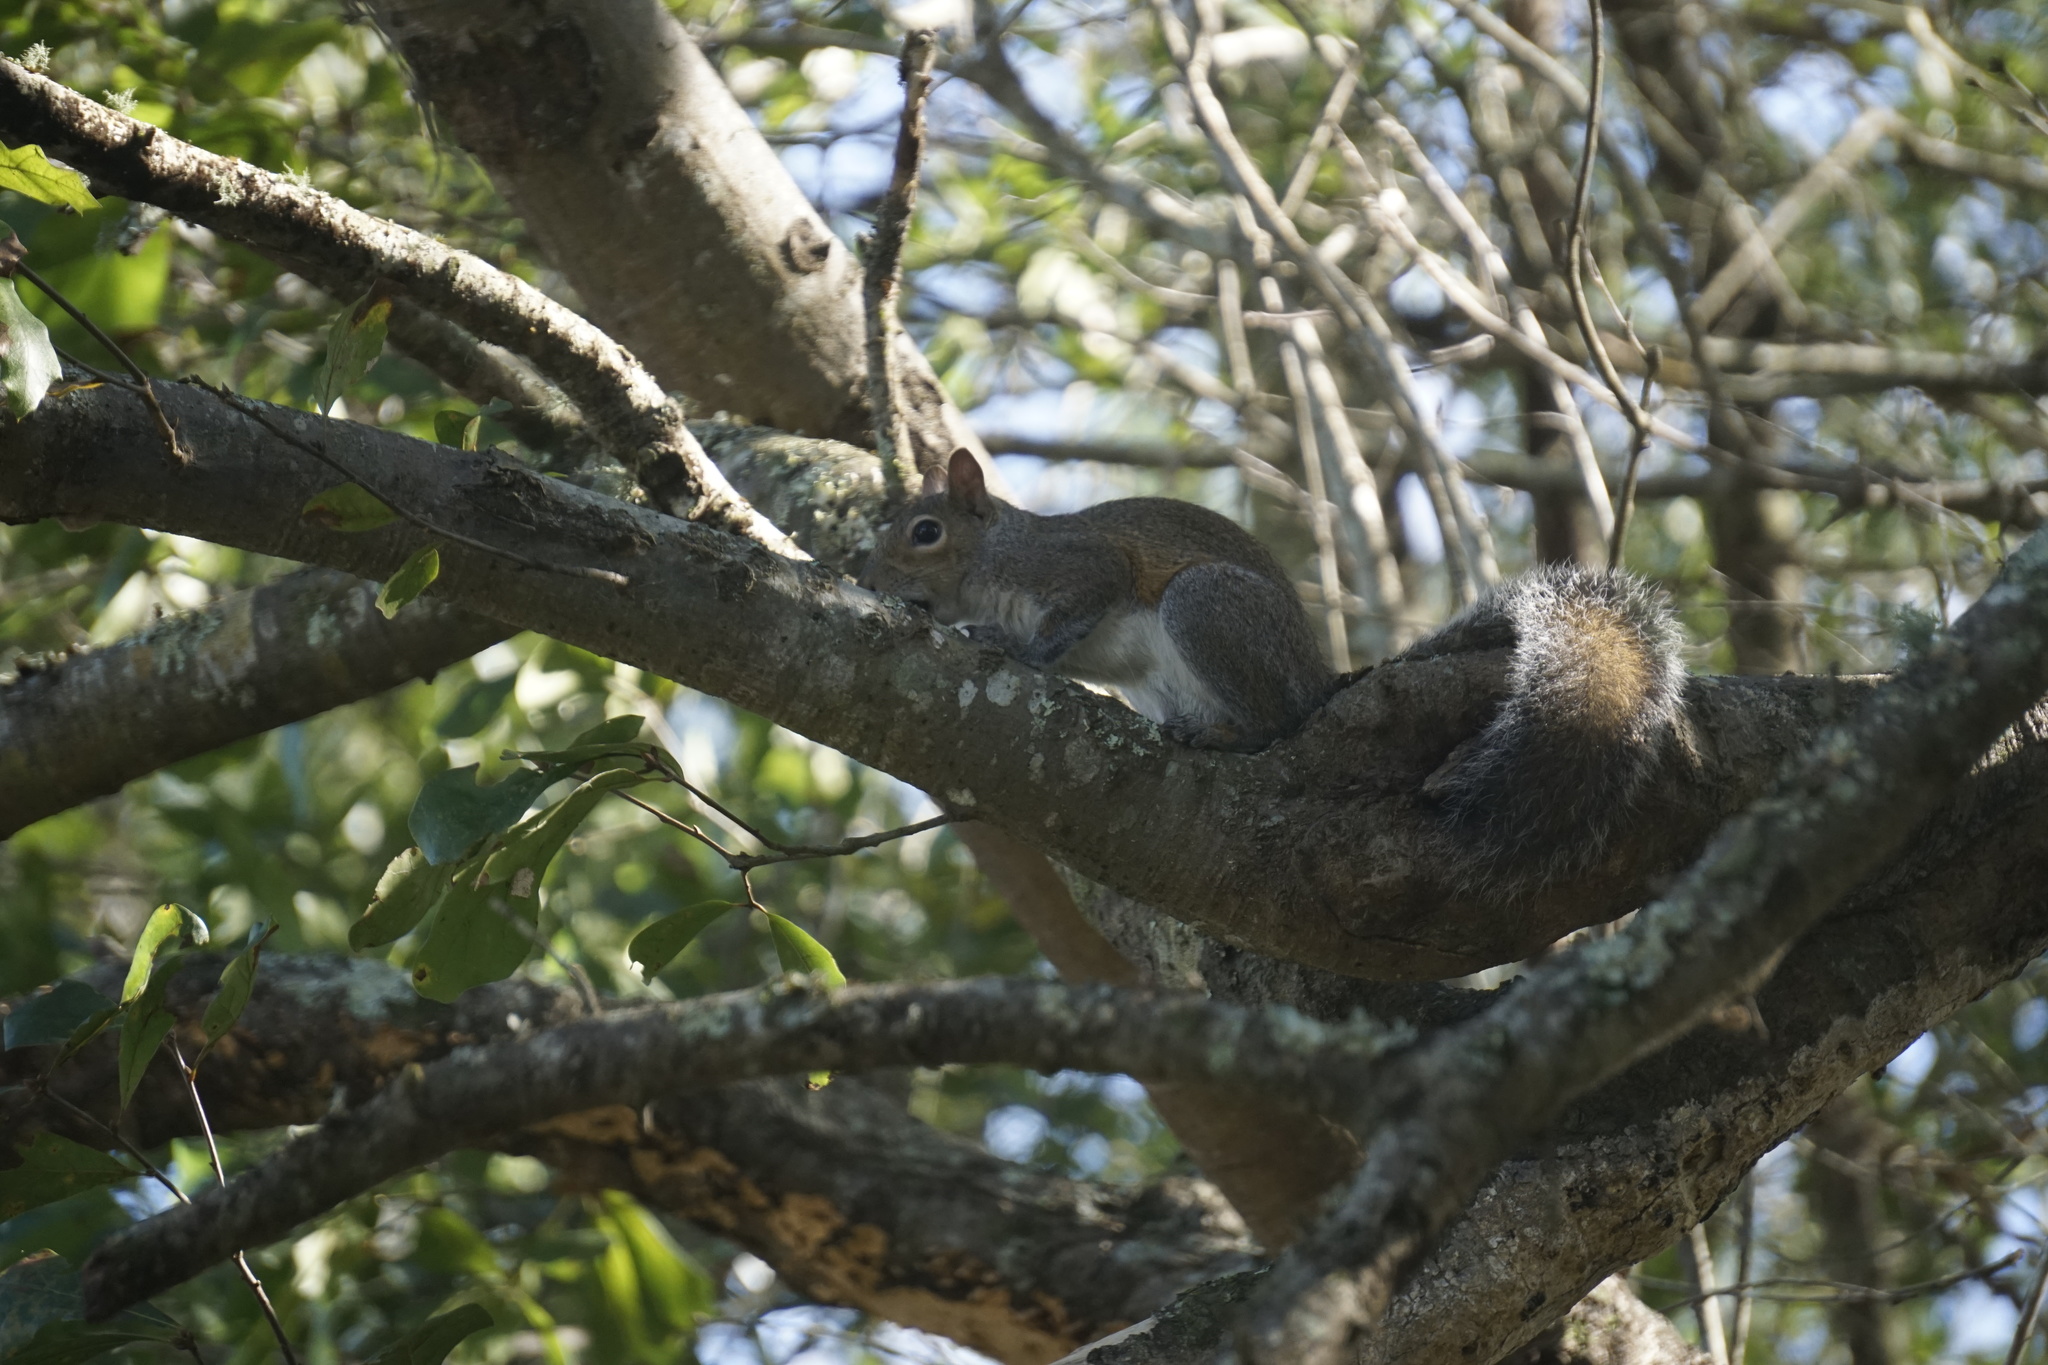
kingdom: Animalia
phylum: Chordata
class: Mammalia
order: Rodentia
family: Sciuridae
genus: Sciurus
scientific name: Sciurus carolinensis
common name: Eastern gray squirrel
